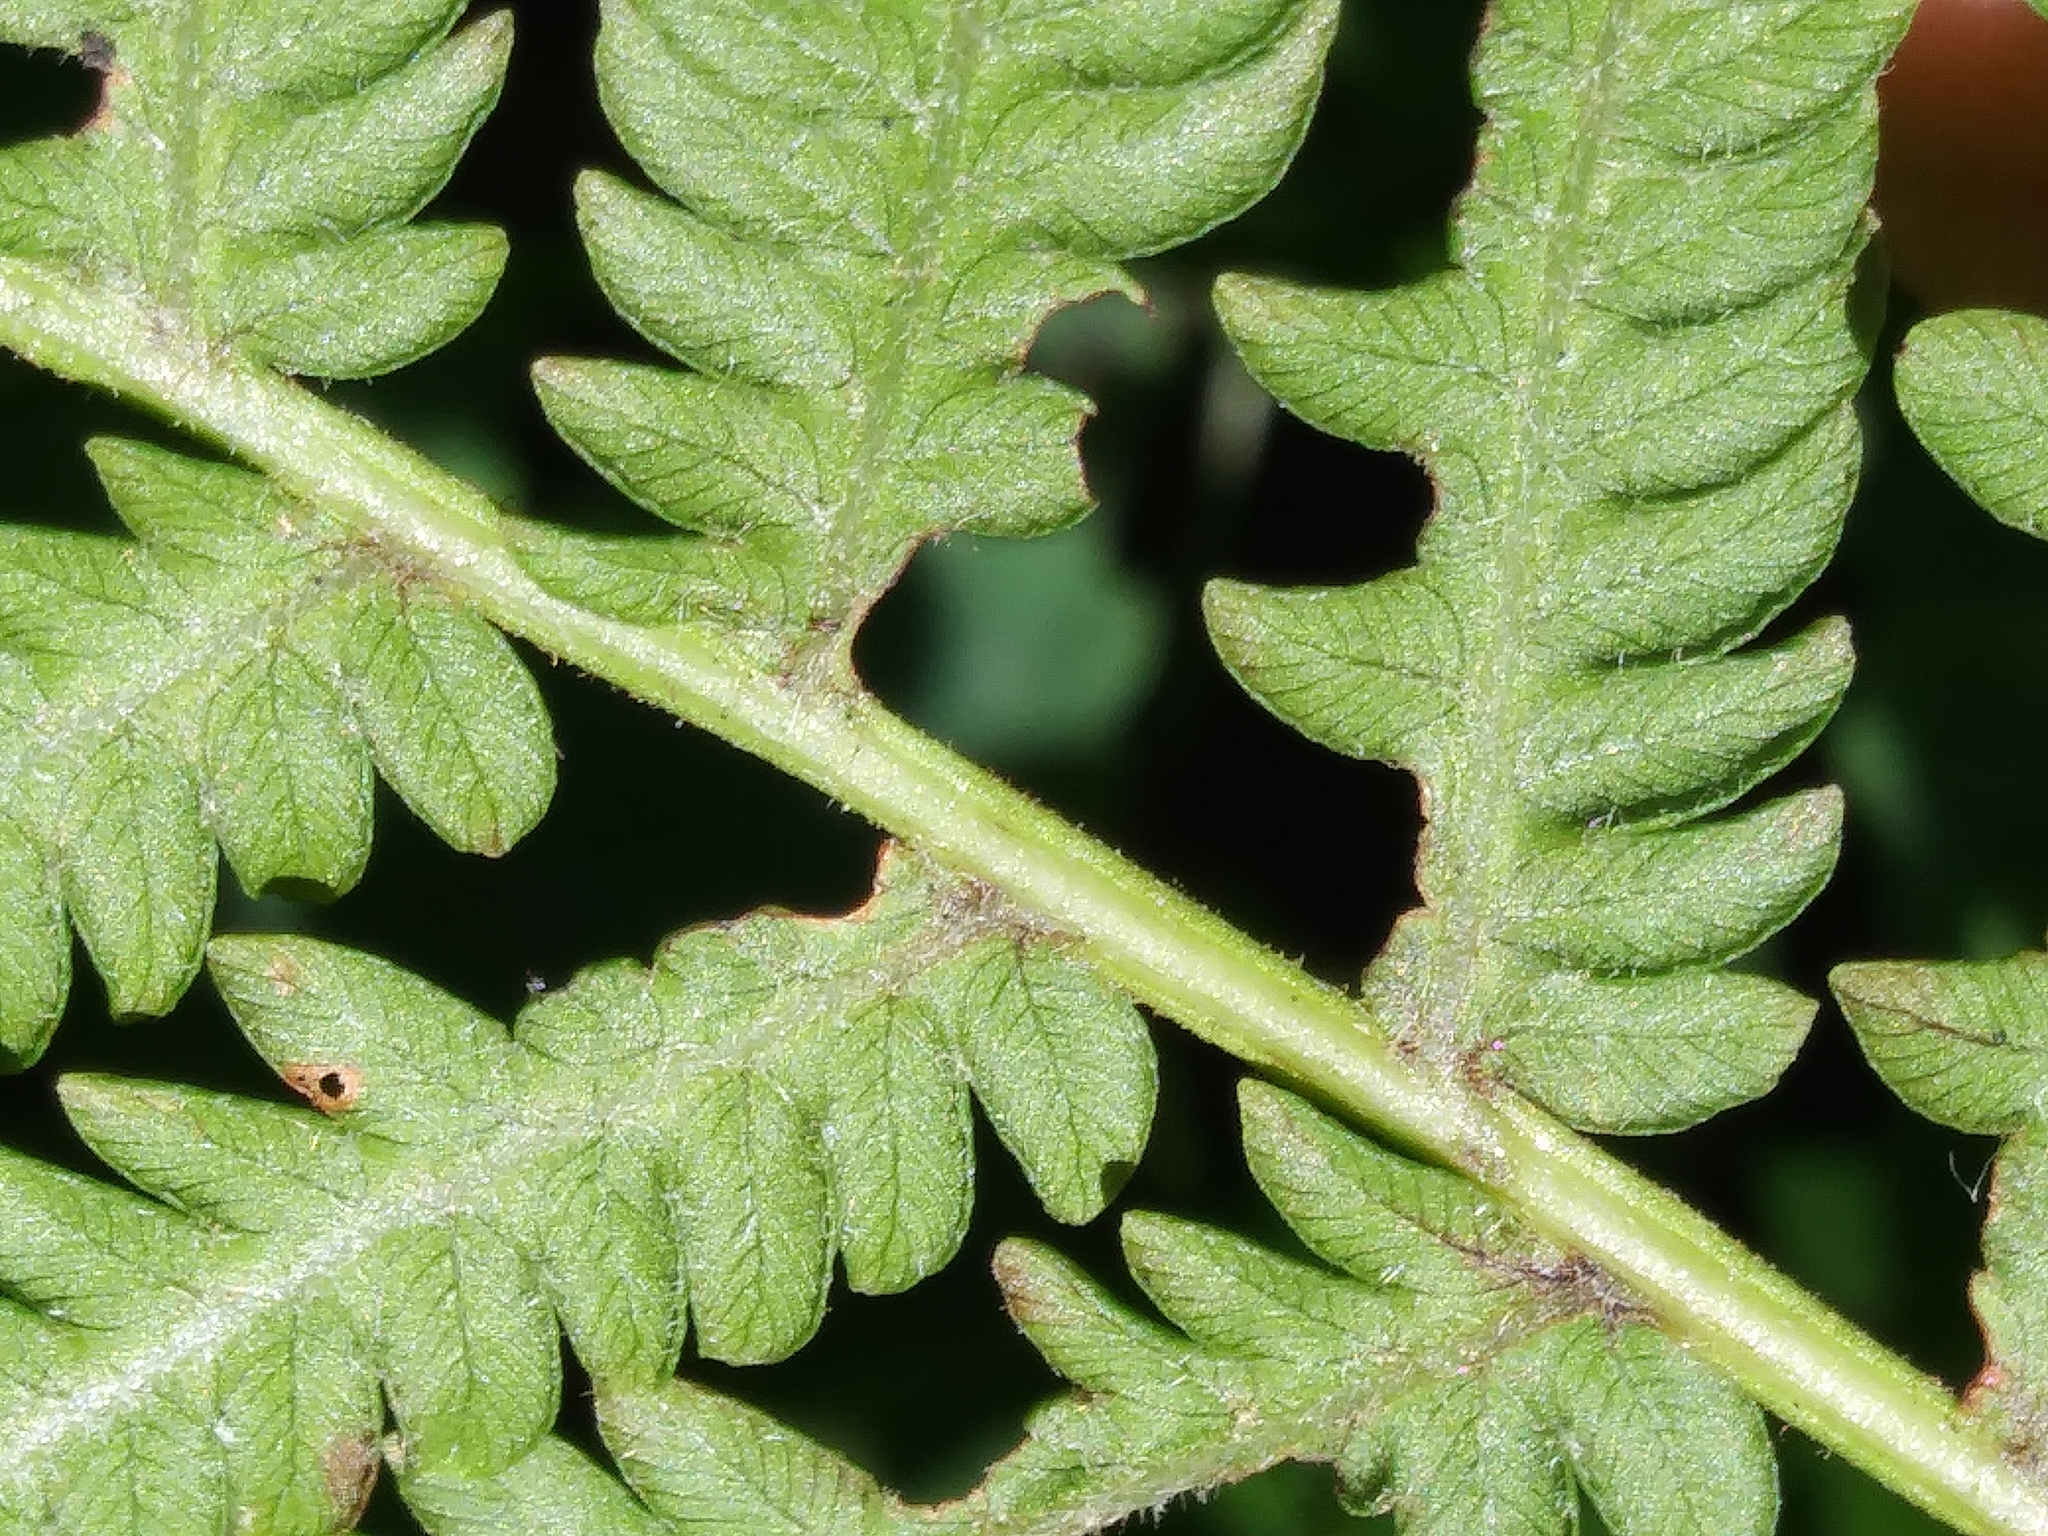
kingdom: Plantae
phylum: Tracheophyta
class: Polypodiopsida
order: Polypodiales
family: Onocleaceae
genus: Matteuccia
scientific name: Matteuccia struthiopteris
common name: Ostrich fern
